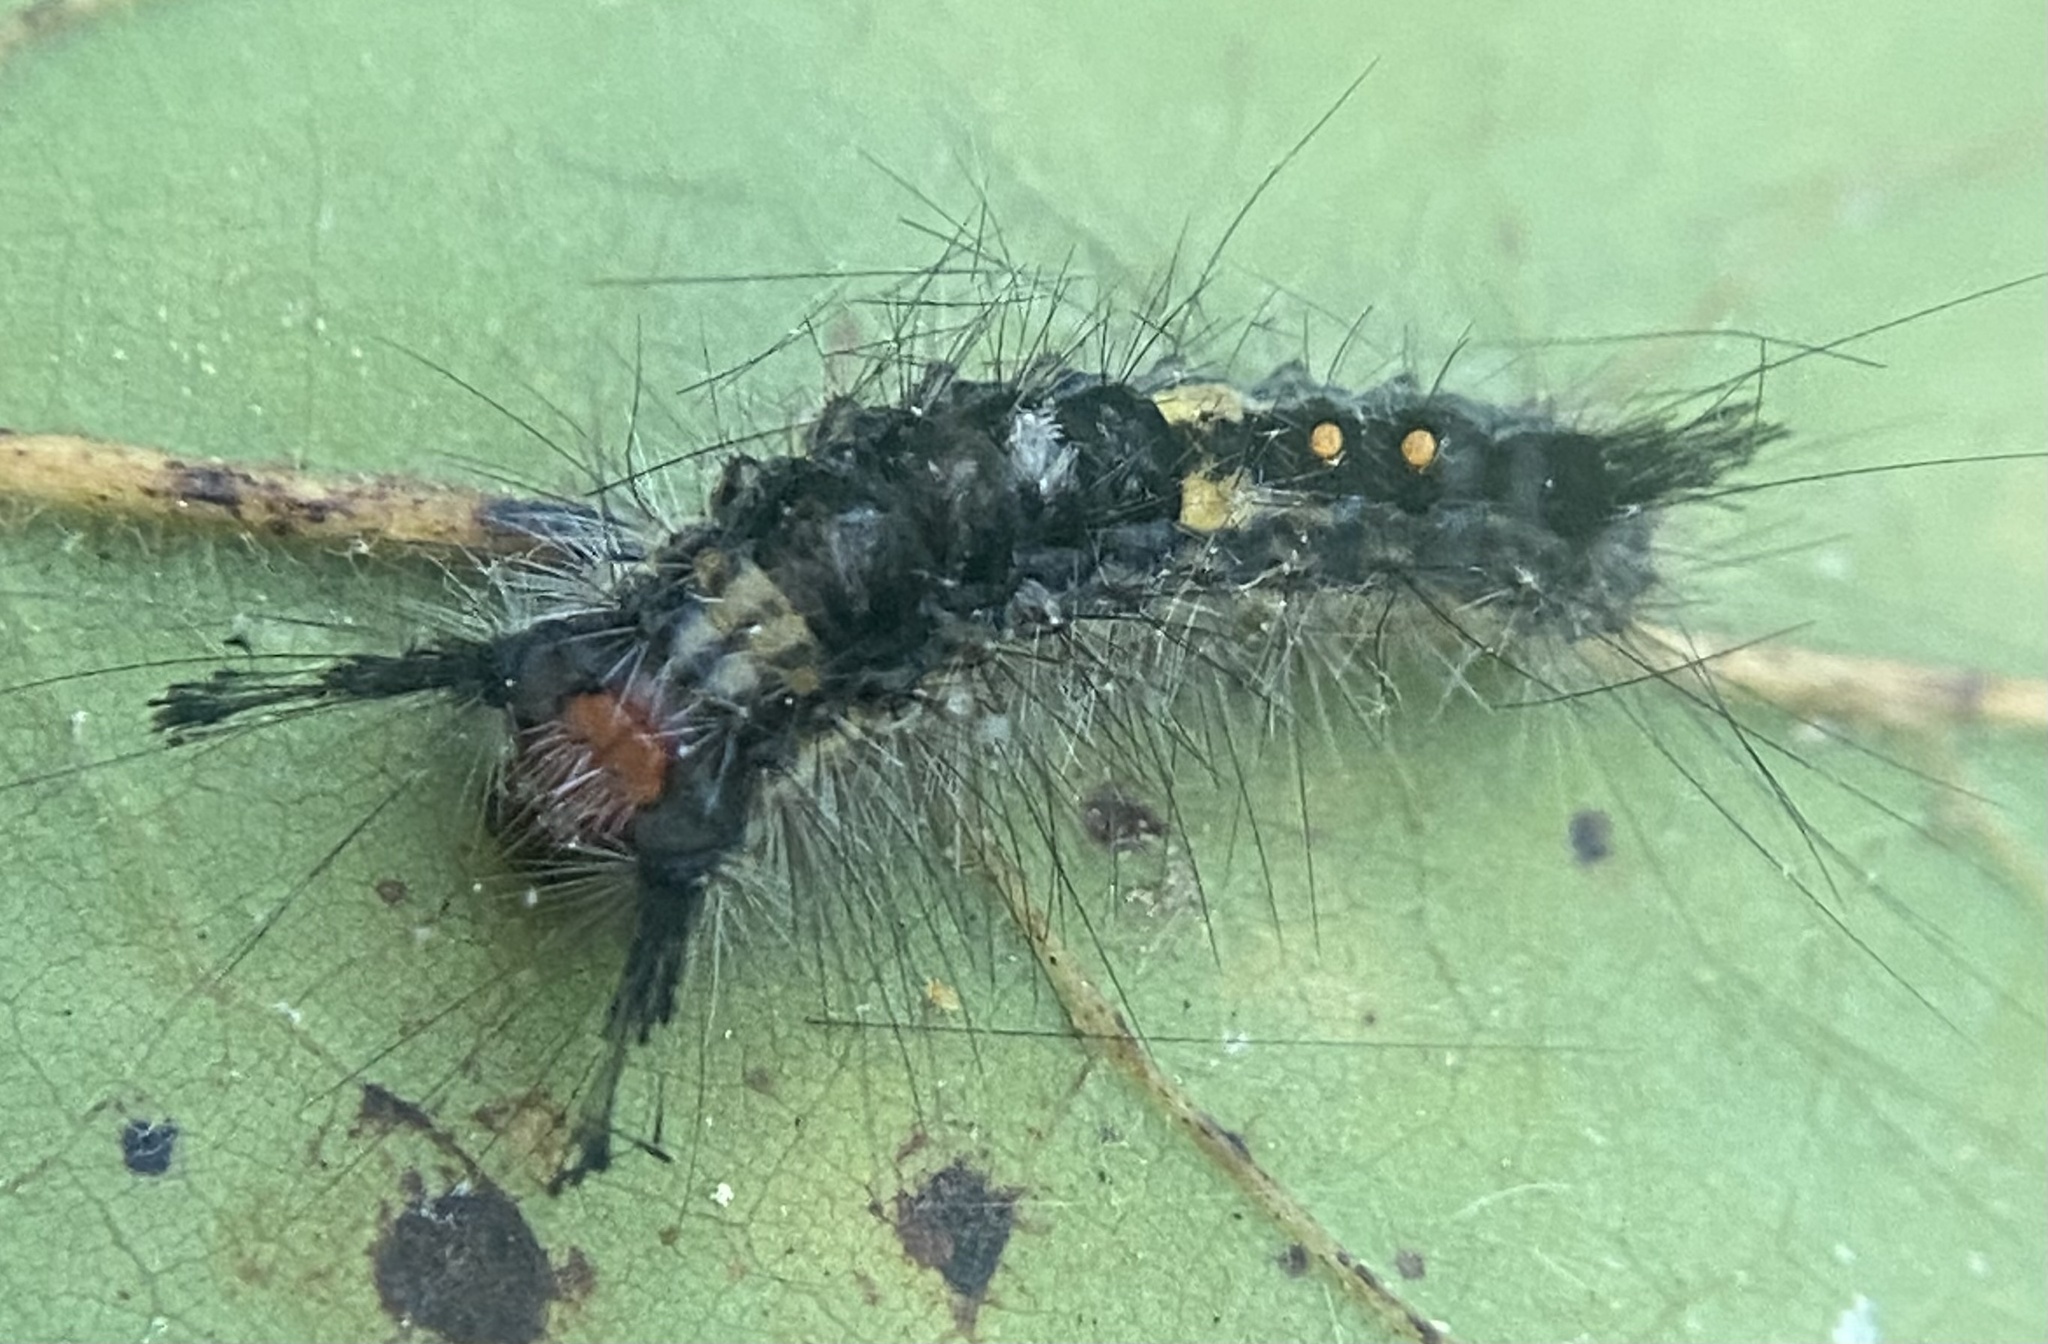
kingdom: Animalia
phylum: Arthropoda
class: Insecta
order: Lepidoptera
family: Erebidae
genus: Orgyia
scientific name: Orgyia leucostigma
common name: White-marked tussock moth
